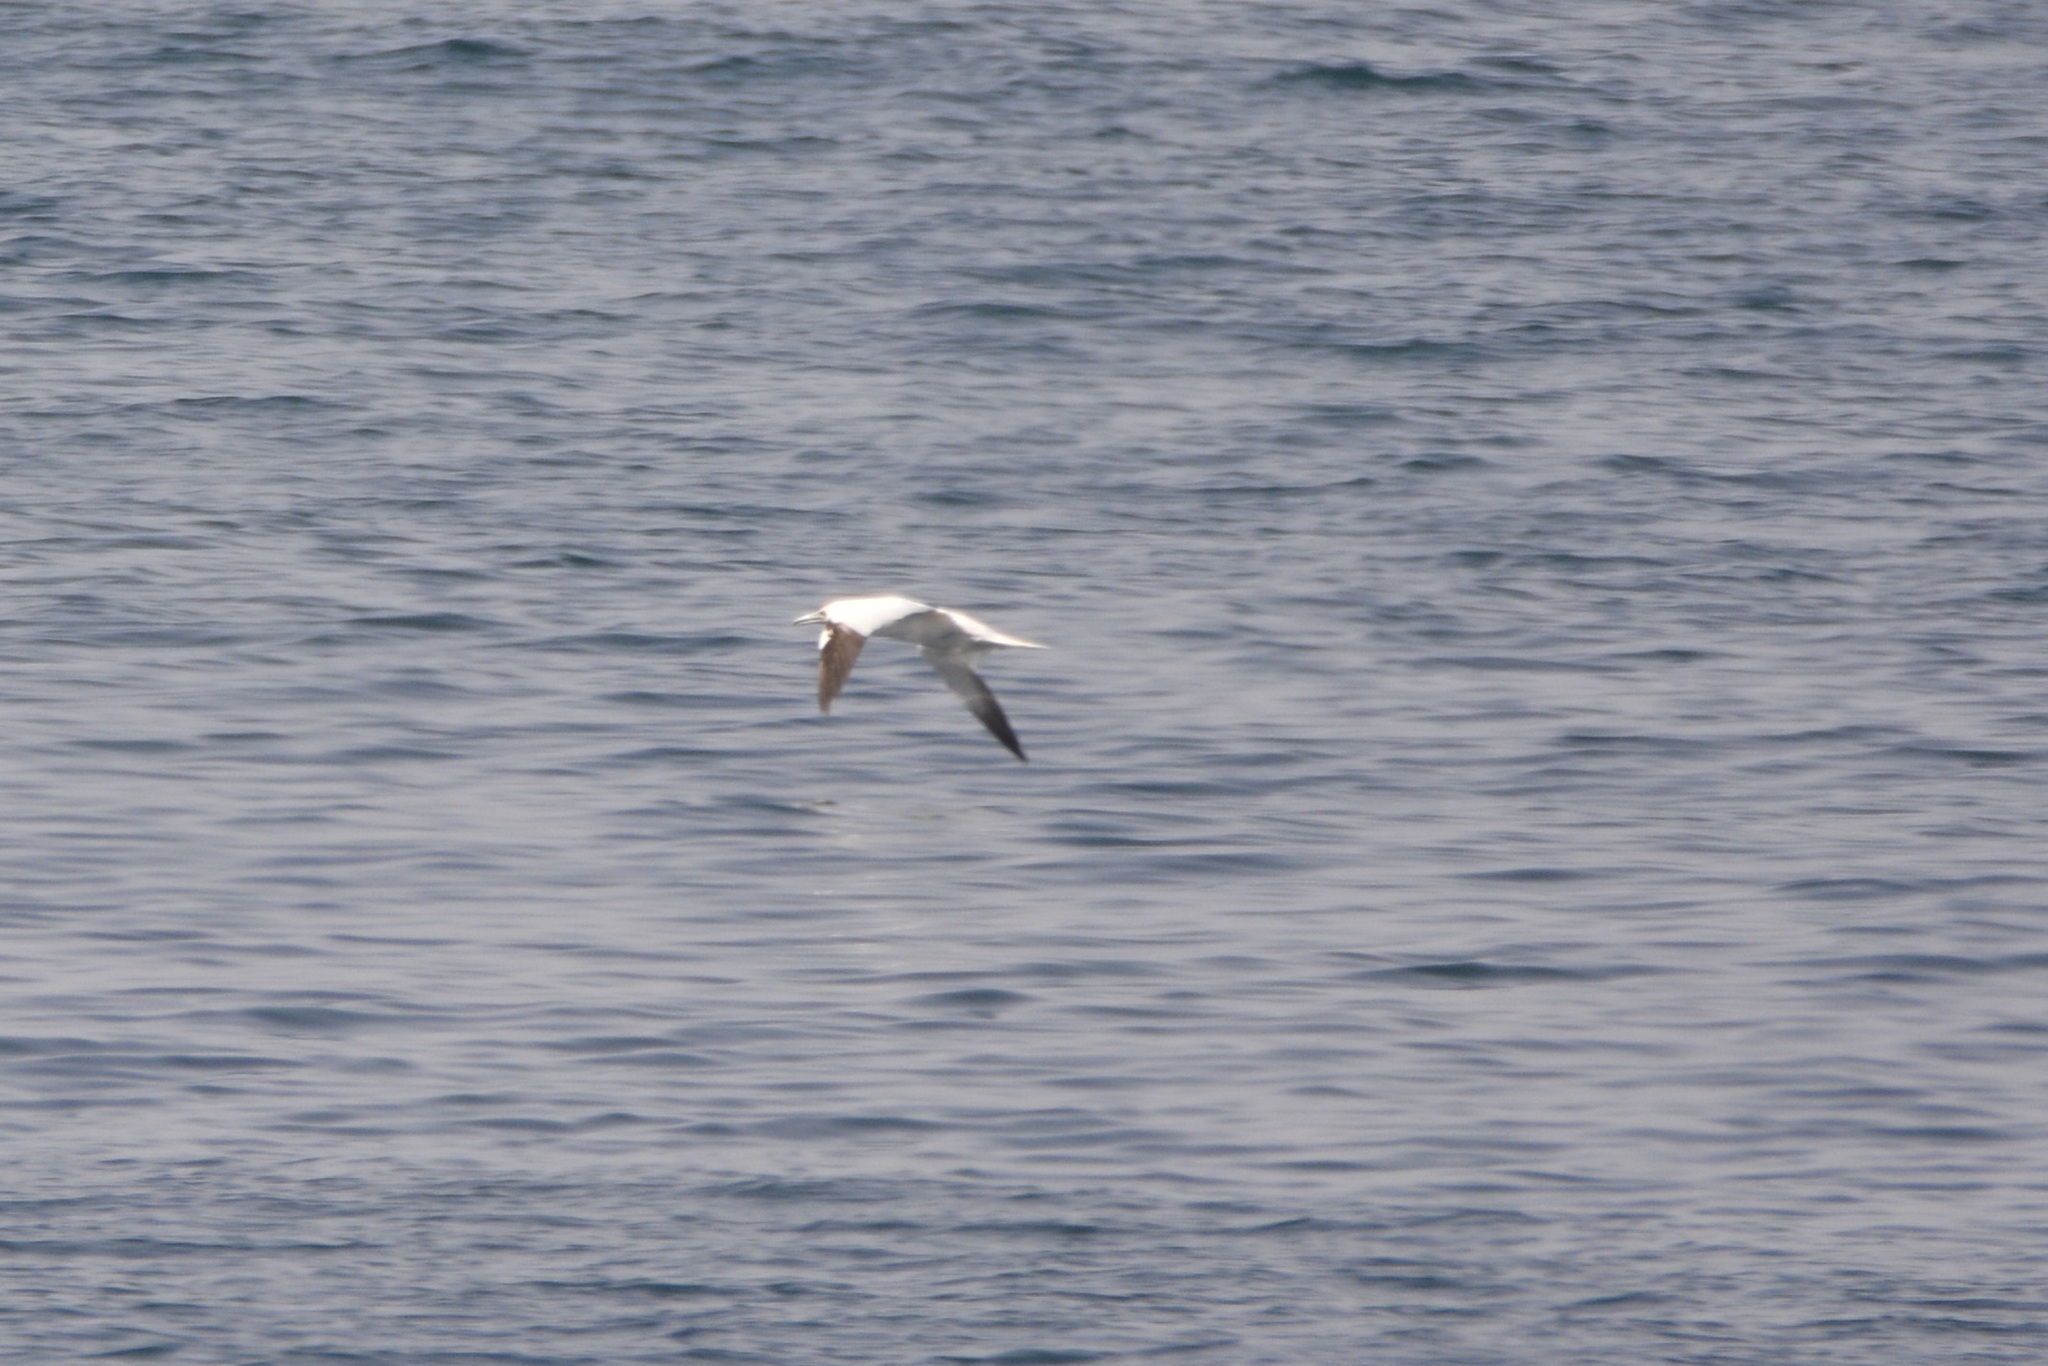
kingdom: Animalia
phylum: Chordata
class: Aves
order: Suliformes
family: Sulidae
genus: Morus
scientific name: Morus bassanus
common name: Northern gannet
